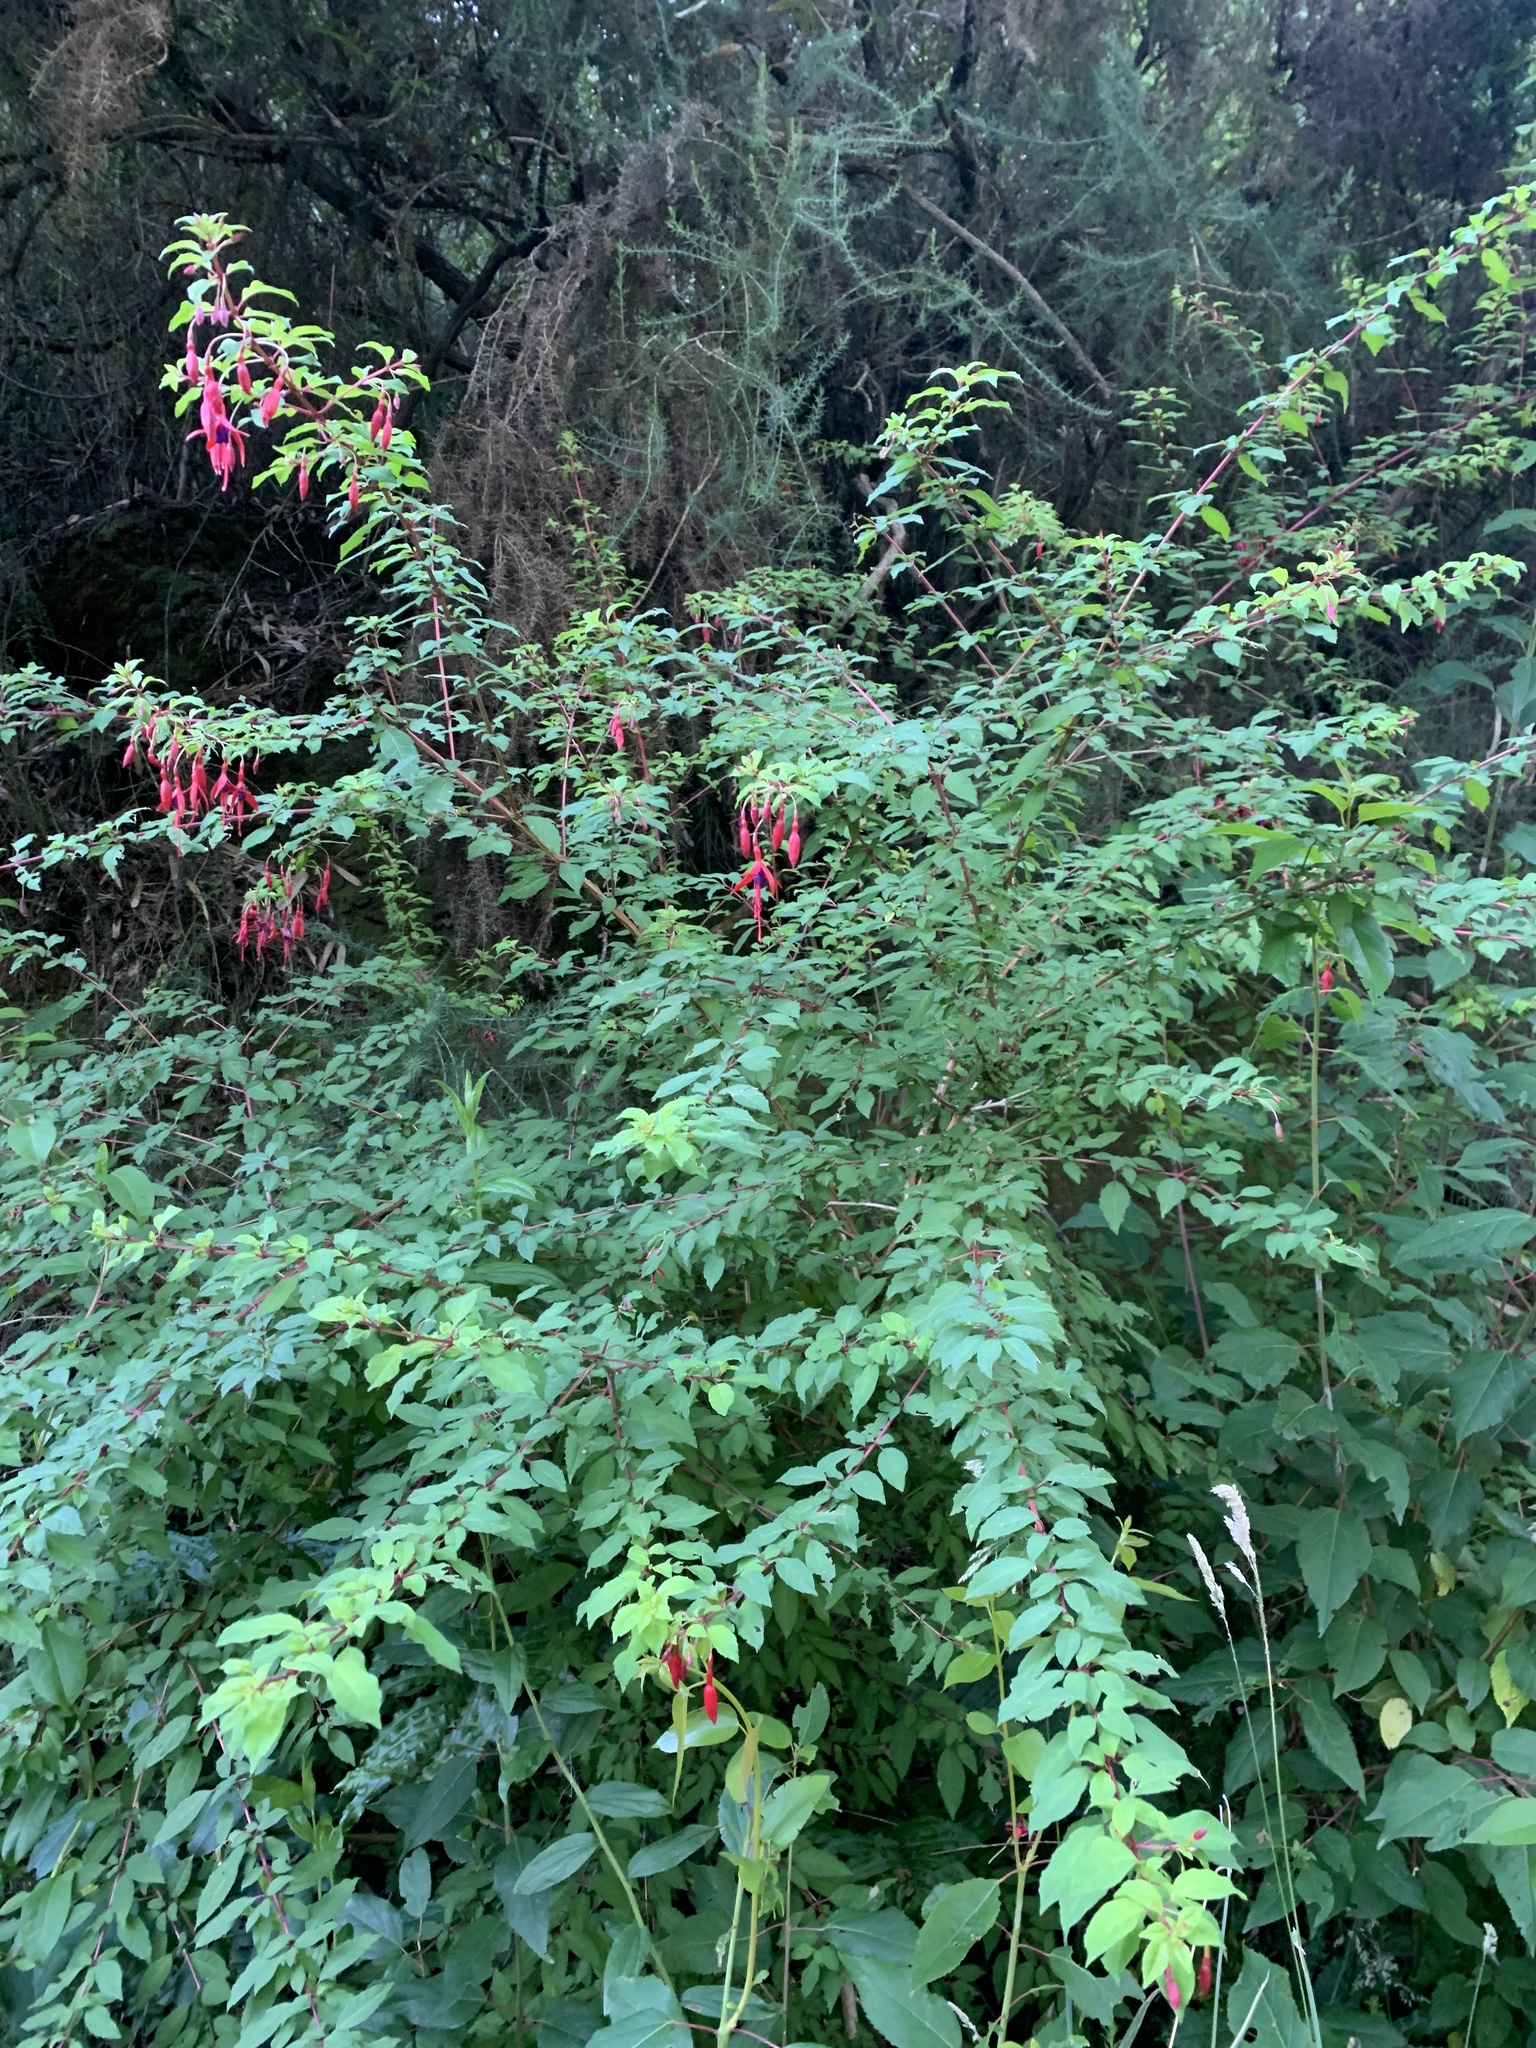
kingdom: Plantae
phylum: Tracheophyta
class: Magnoliopsida
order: Myrtales
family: Onagraceae
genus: Fuchsia
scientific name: Fuchsia magellanica
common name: Hardy fuchsia
